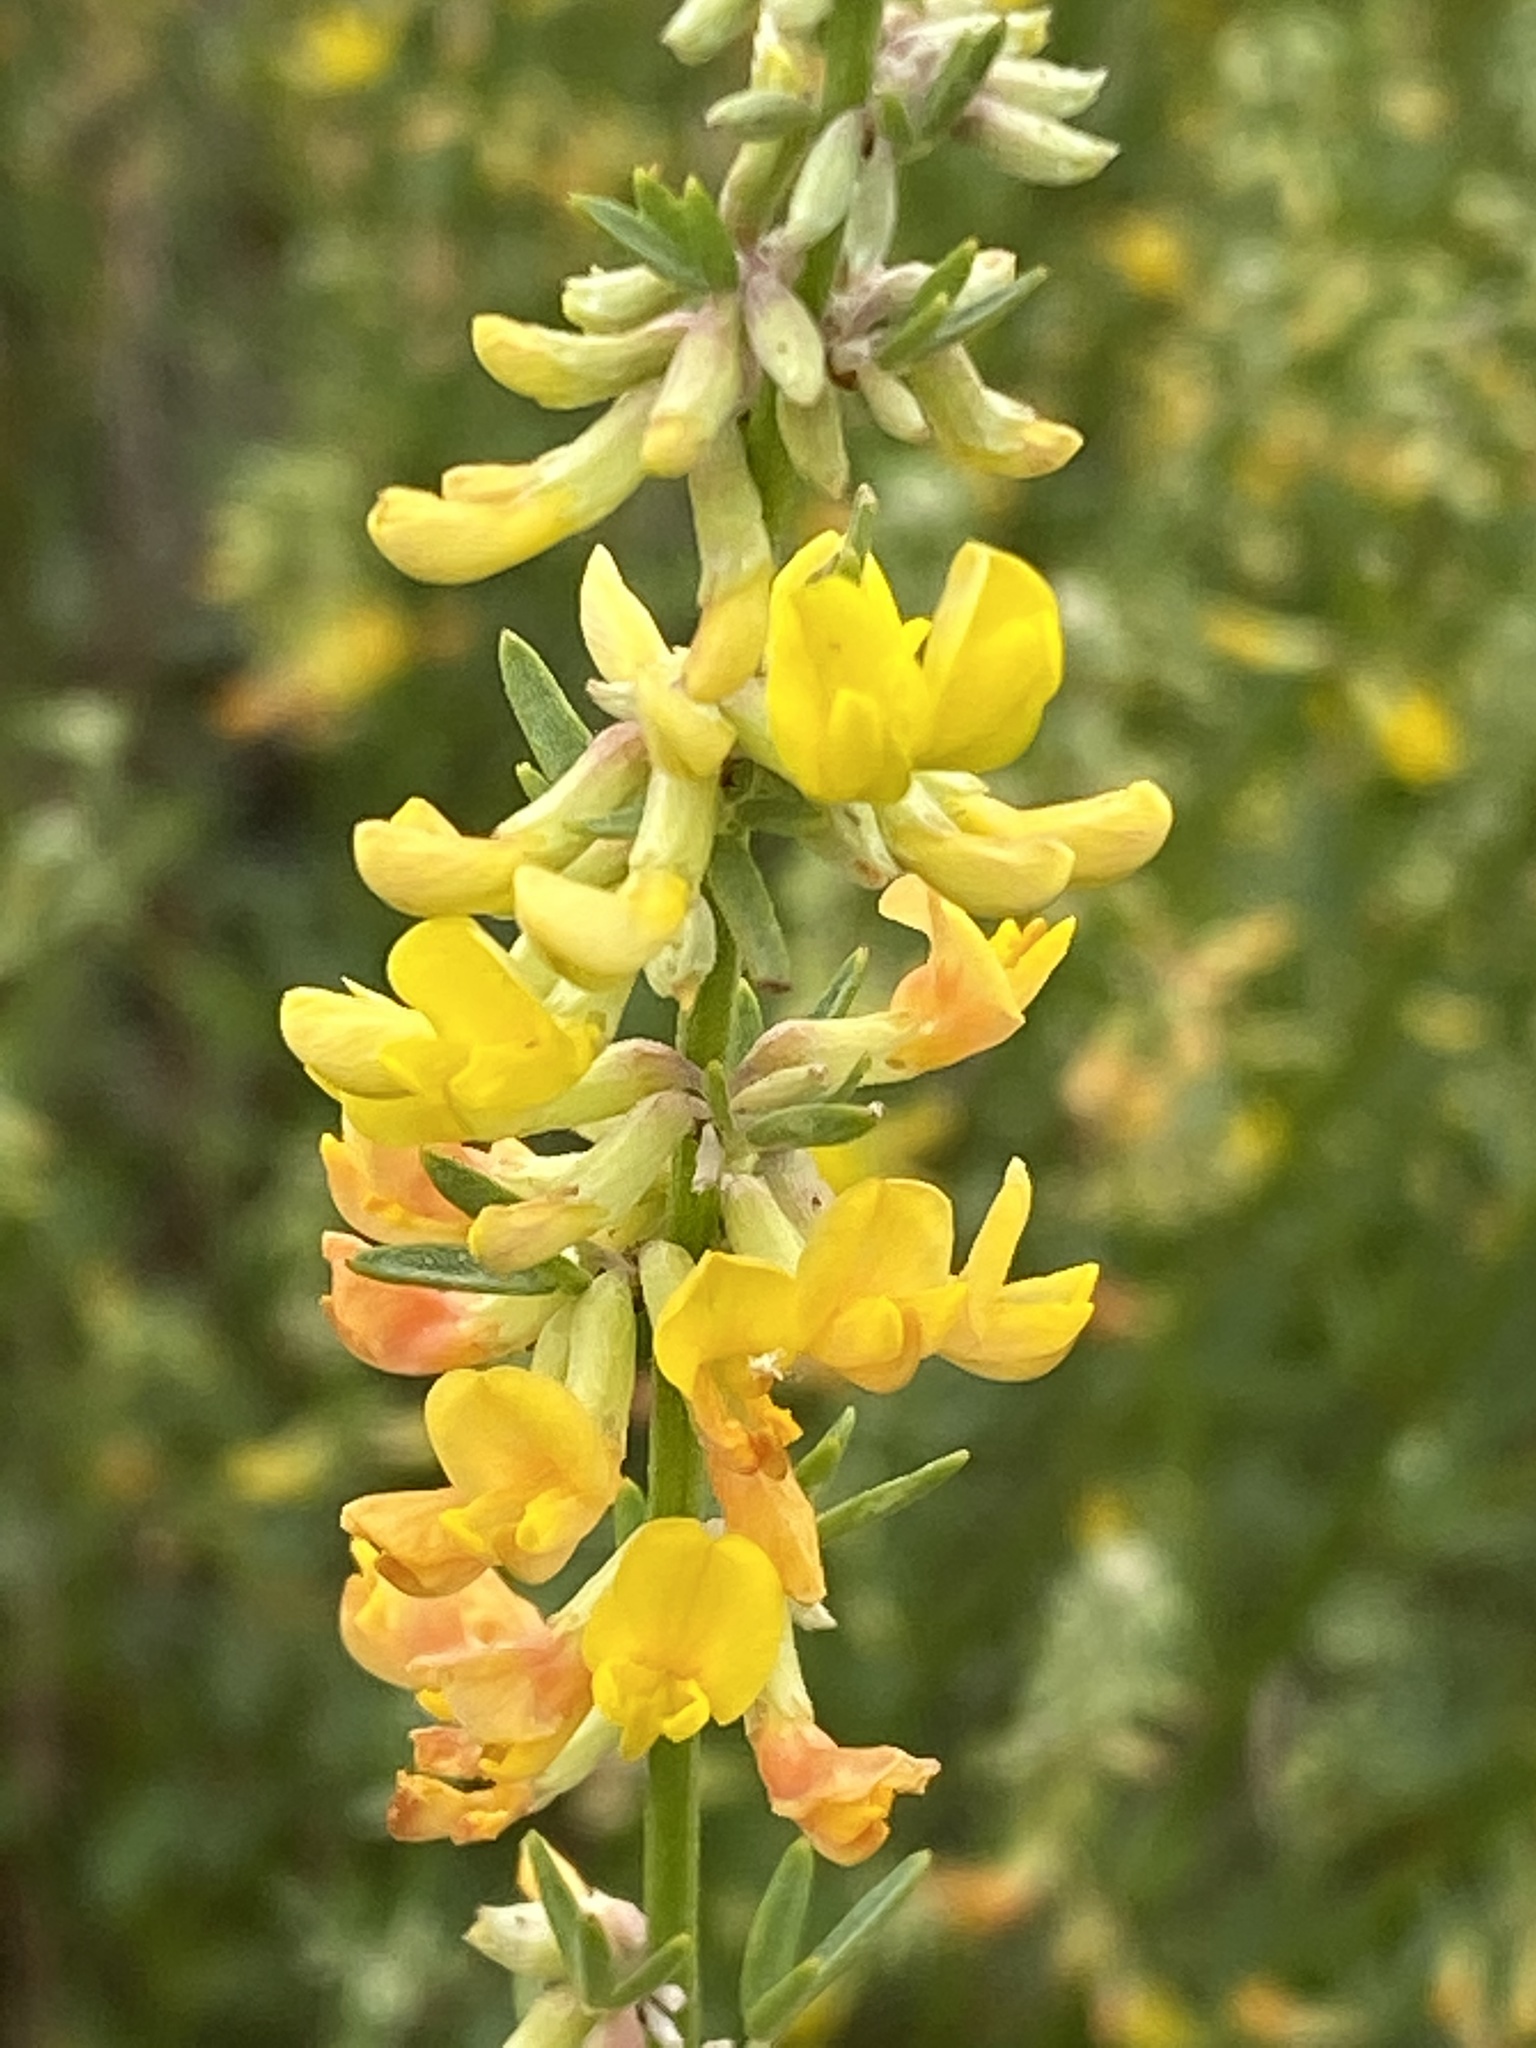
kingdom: Plantae
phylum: Tracheophyta
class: Magnoliopsida
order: Fabales
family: Fabaceae
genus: Acmispon
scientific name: Acmispon glaber
